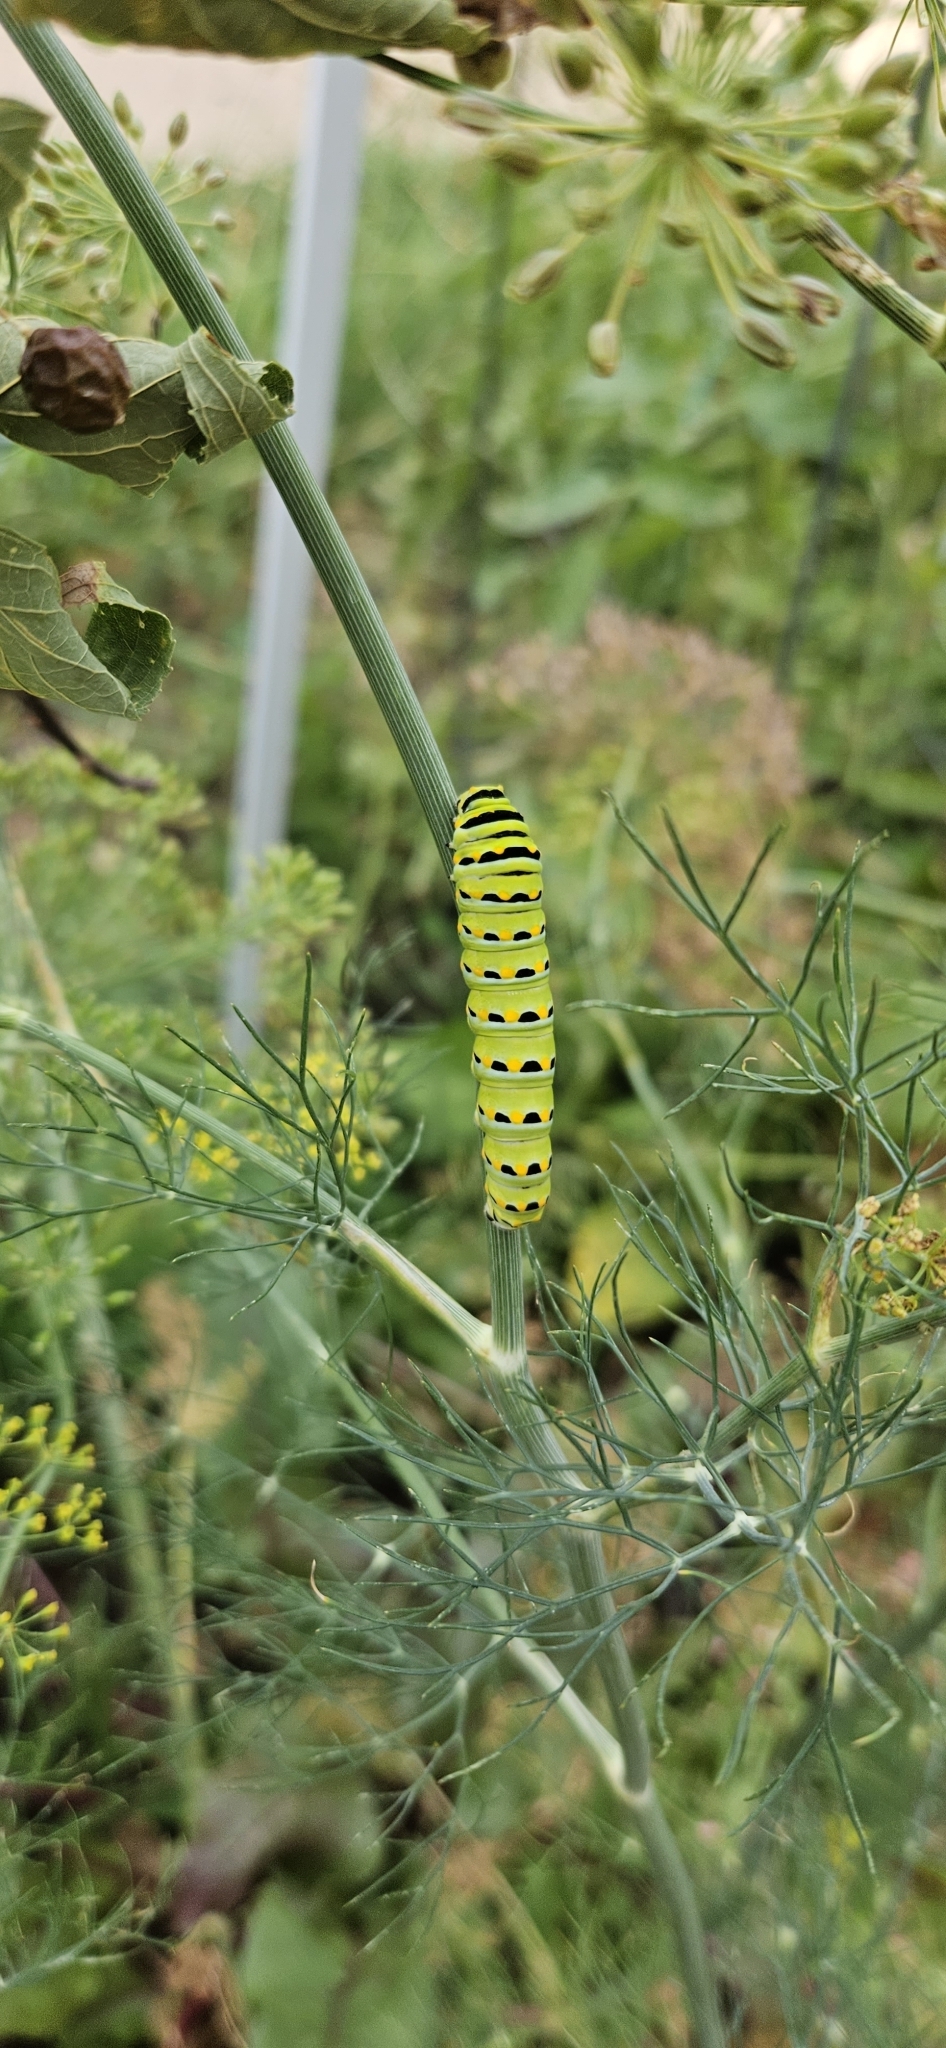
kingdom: Animalia
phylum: Arthropoda
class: Insecta
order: Lepidoptera
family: Papilionidae
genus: Papilio
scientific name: Papilio polyxenes
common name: Black swallowtail
